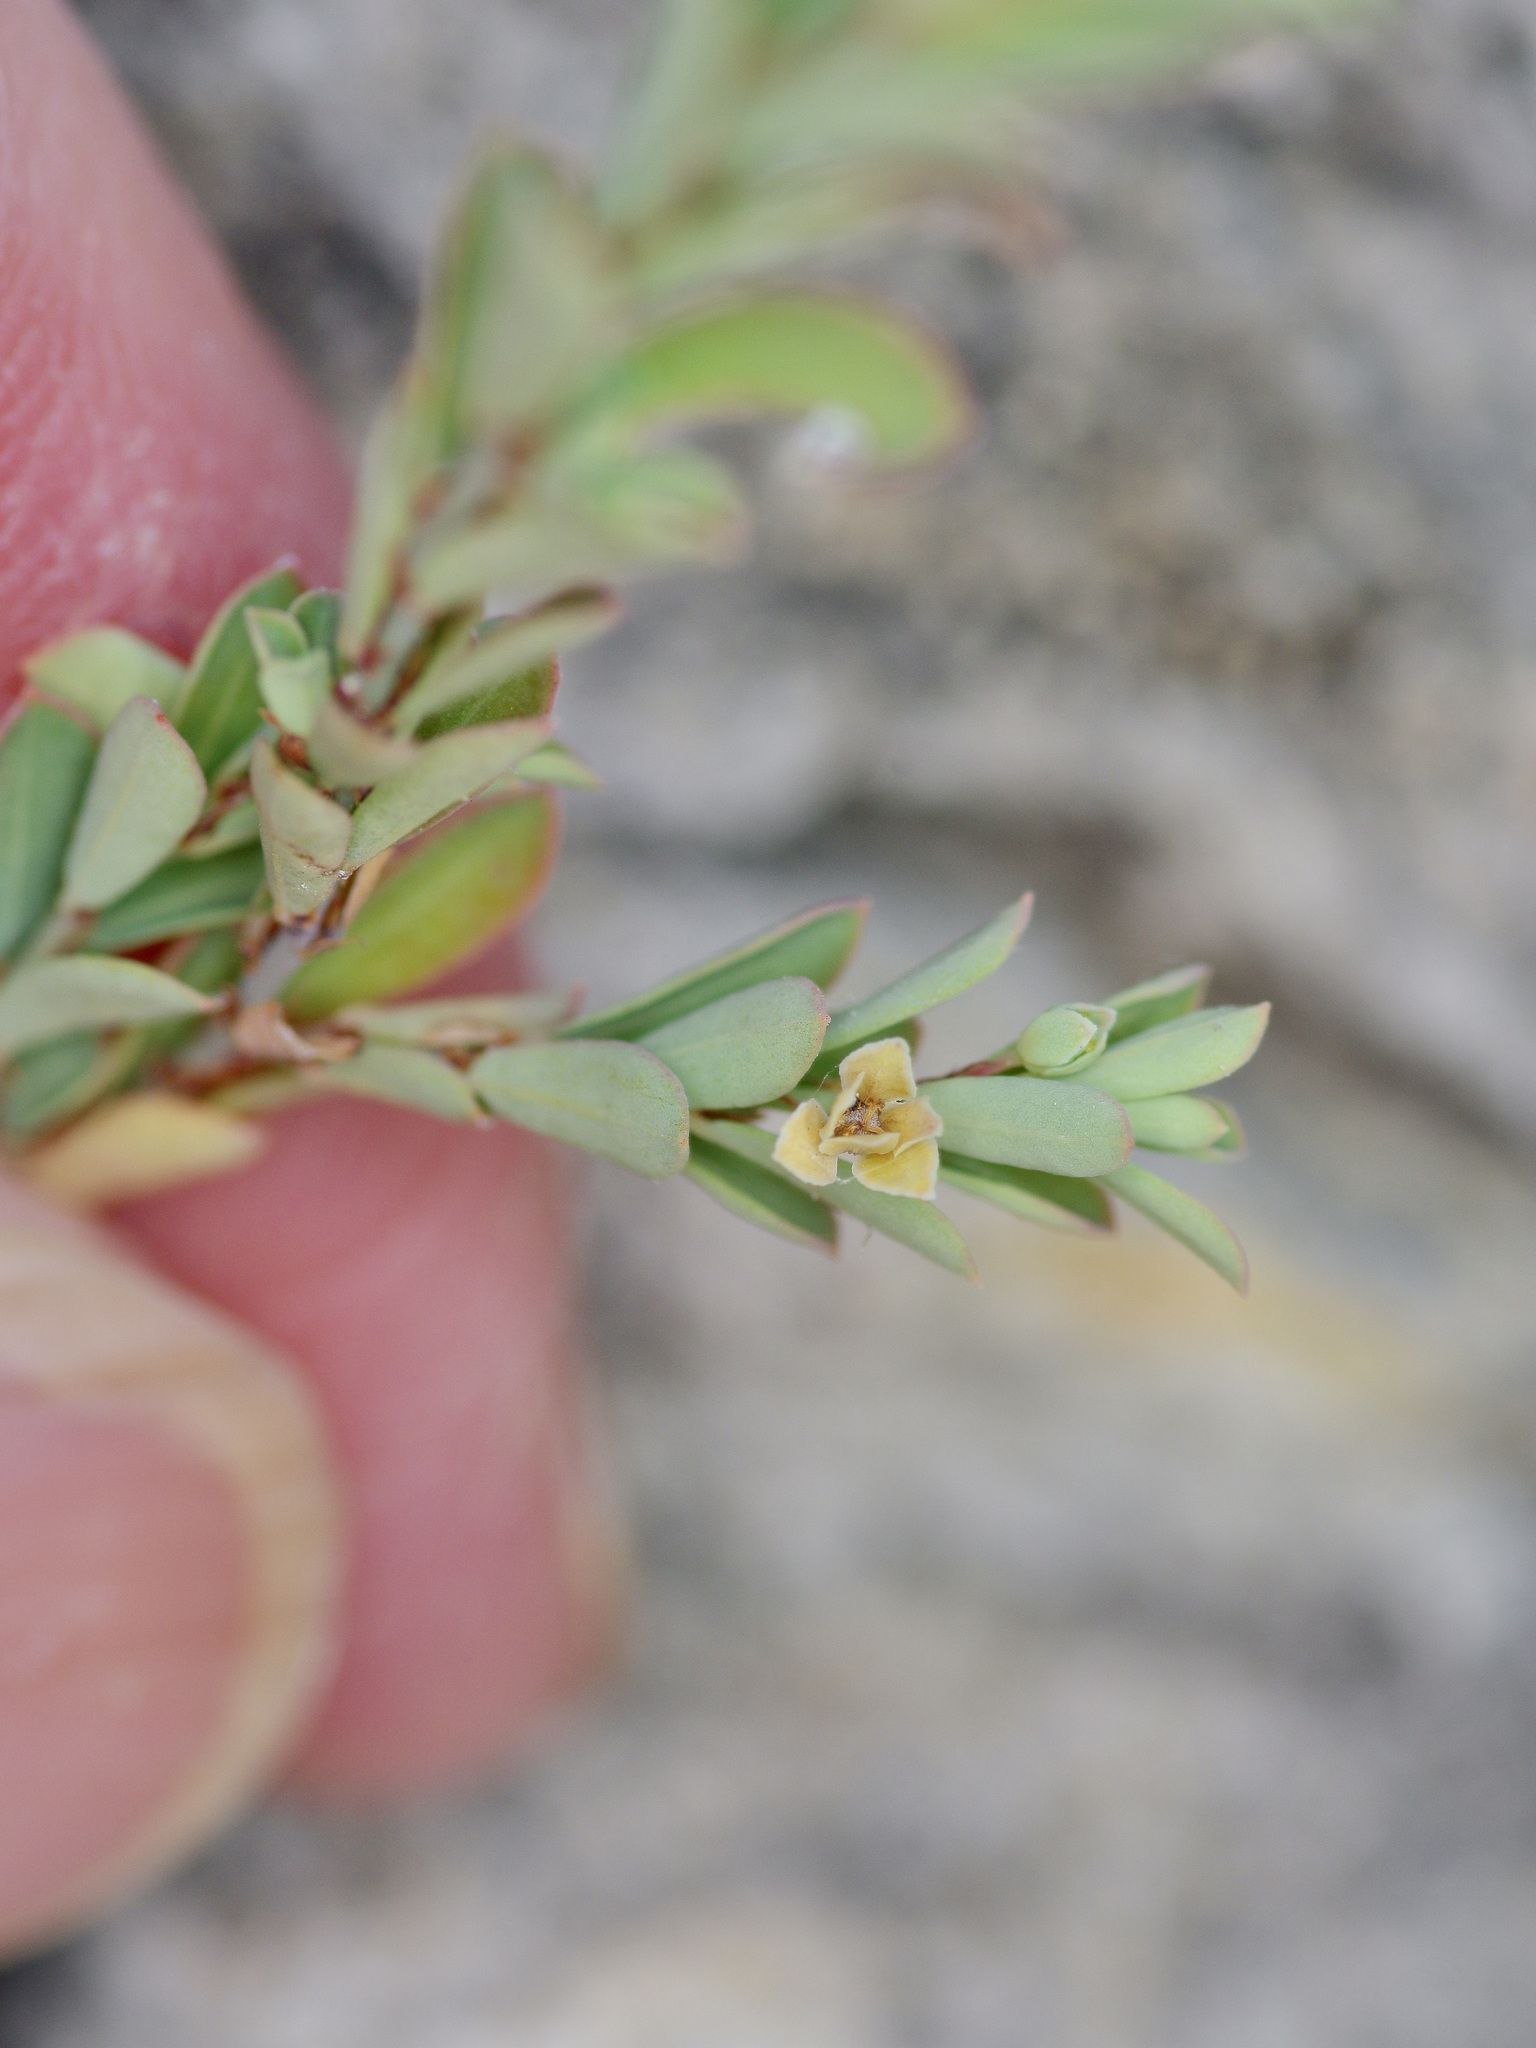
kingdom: Plantae
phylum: Tracheophyta
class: Magnoliopsida
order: Malpighiales
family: Phyllanthaceae
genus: Phyllanthus
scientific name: Phyllanthus polygonoides
